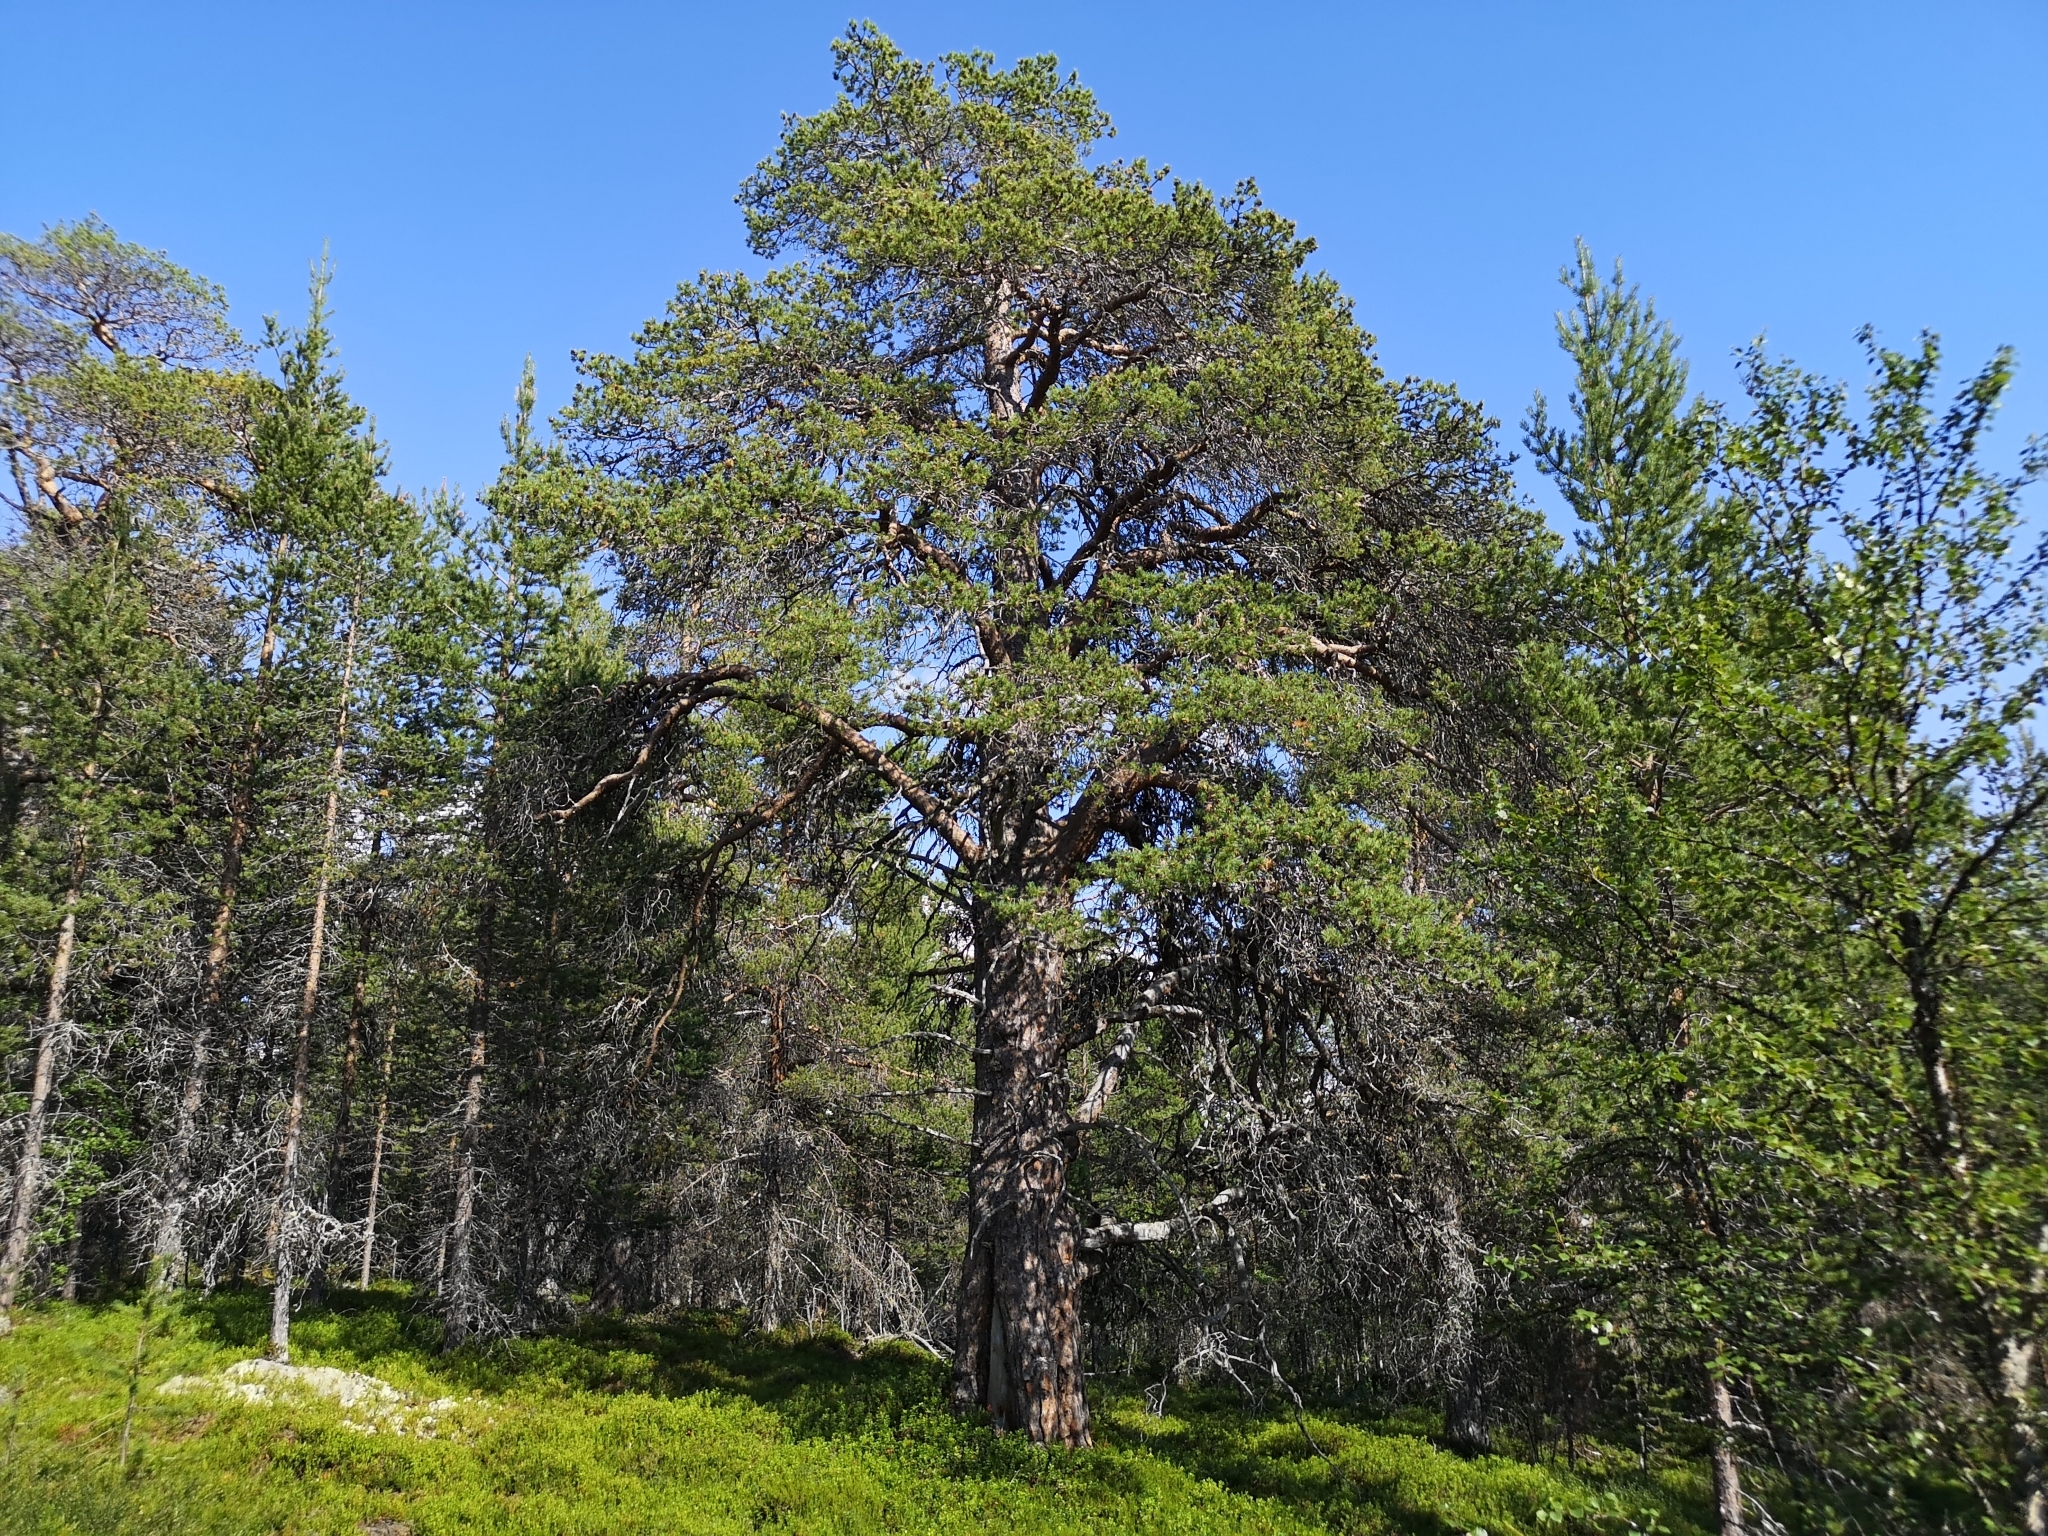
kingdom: Plantae
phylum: Tracheophyta
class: Pinopsida
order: Pinales
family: Pinaceae
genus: Pinus
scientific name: Pinus sylvestris
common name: Scots pine
